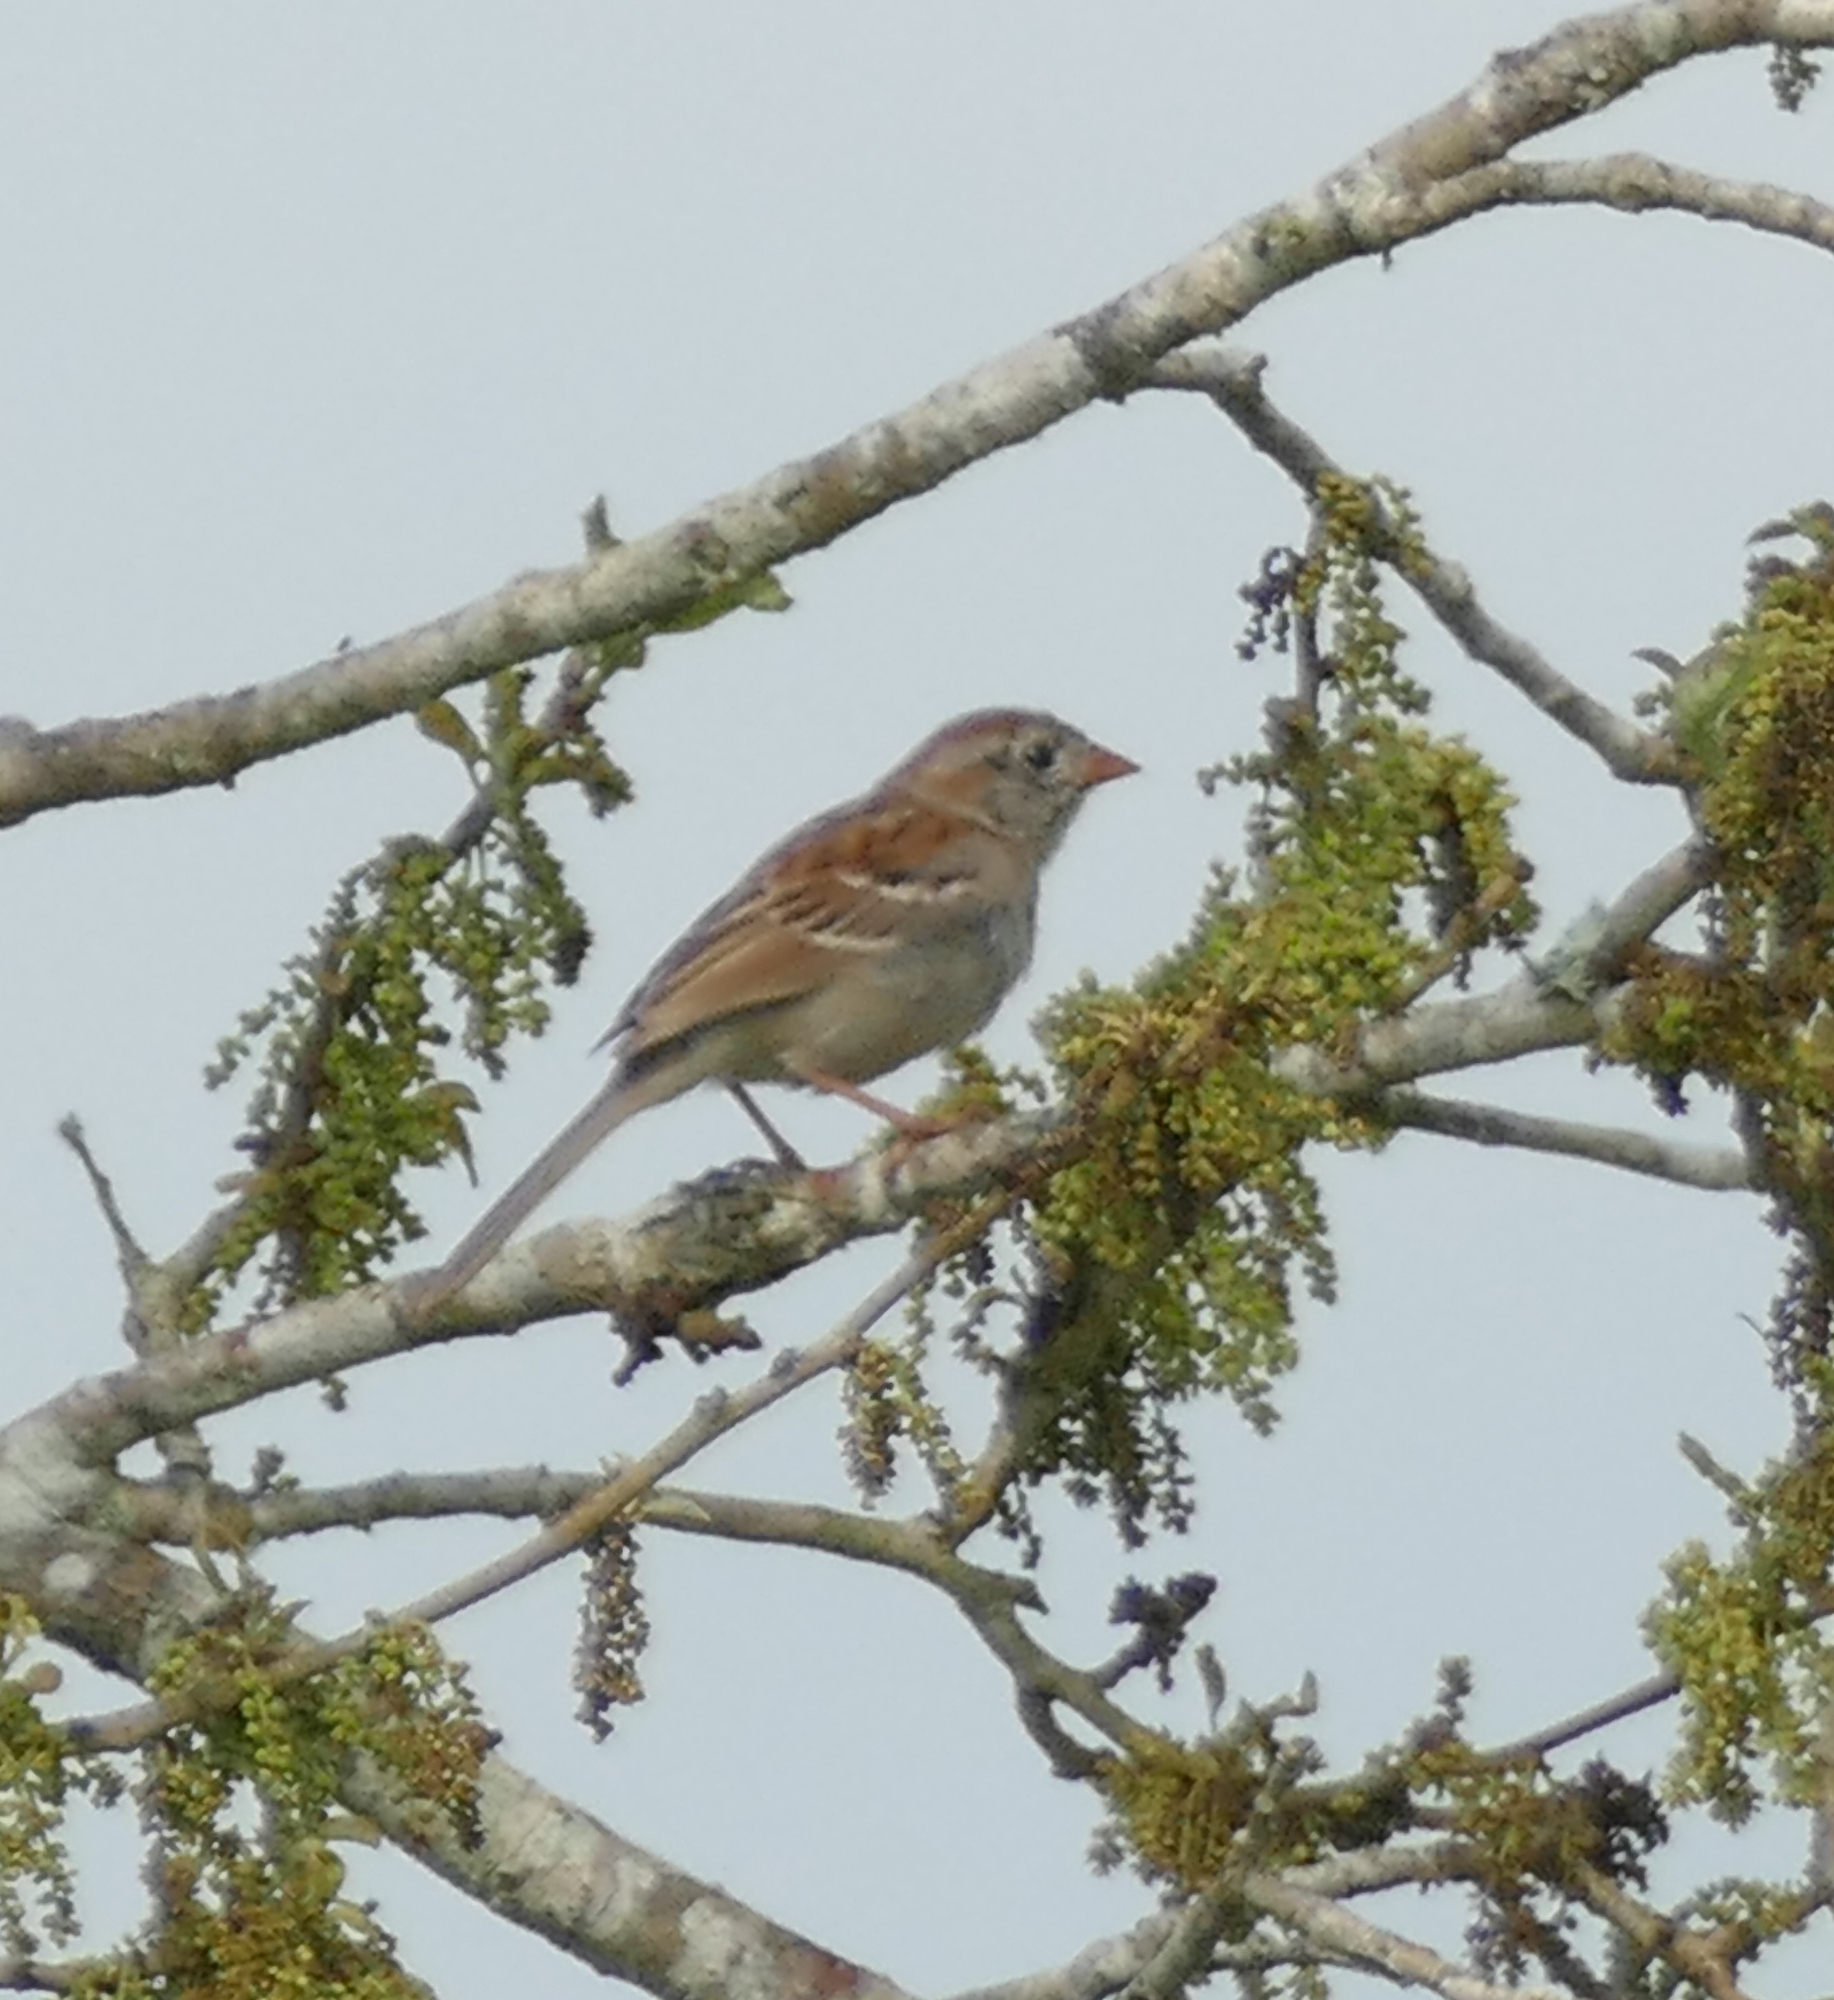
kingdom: Animalia
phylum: Chordata
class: Aves
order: Passeriformes
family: Passerellidae
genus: Spizella
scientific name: Spizella pusilla
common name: Field sparrow
